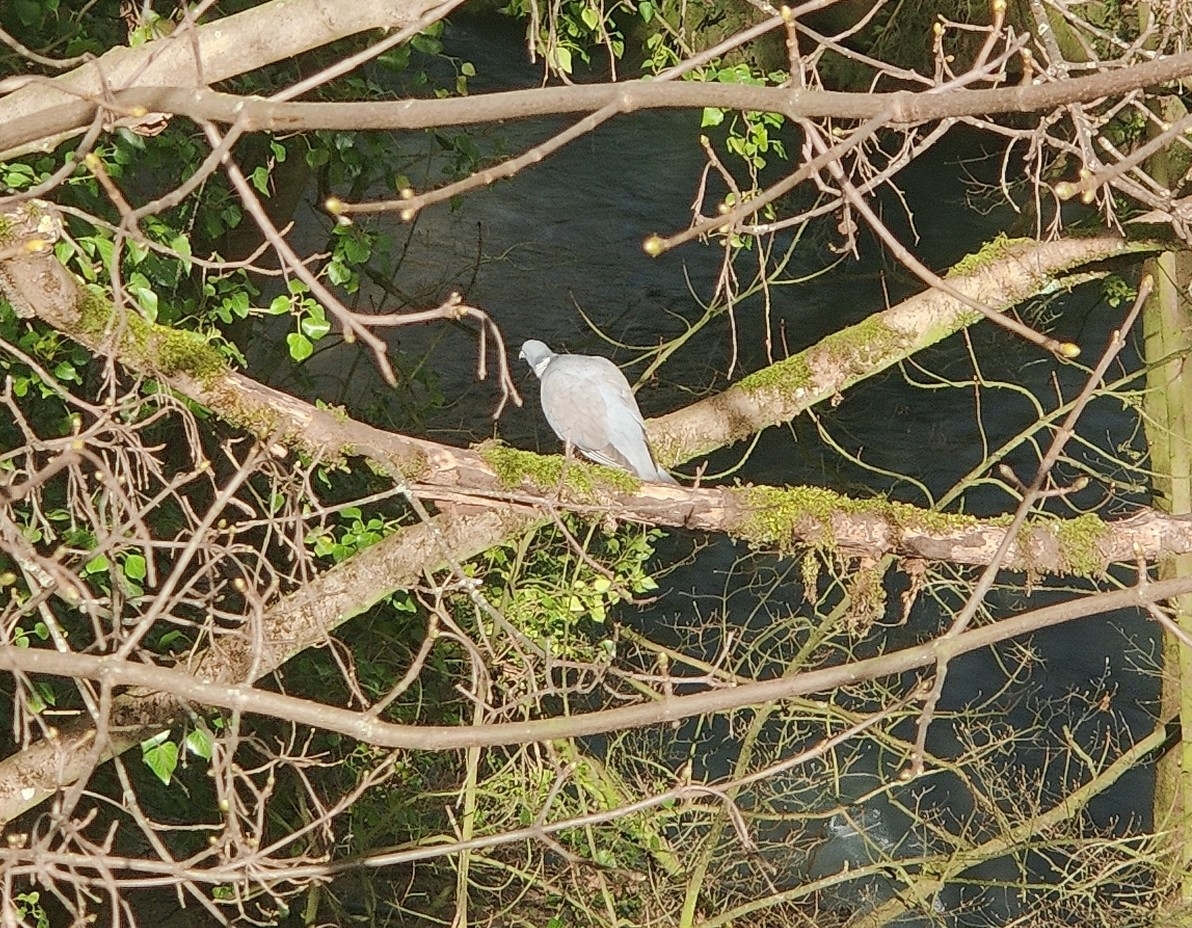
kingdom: Animalia
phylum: Chordata
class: Aves
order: Columbiformes
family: Columbidae
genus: Columba
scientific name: Columba palumbus
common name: Common wood pigeon
